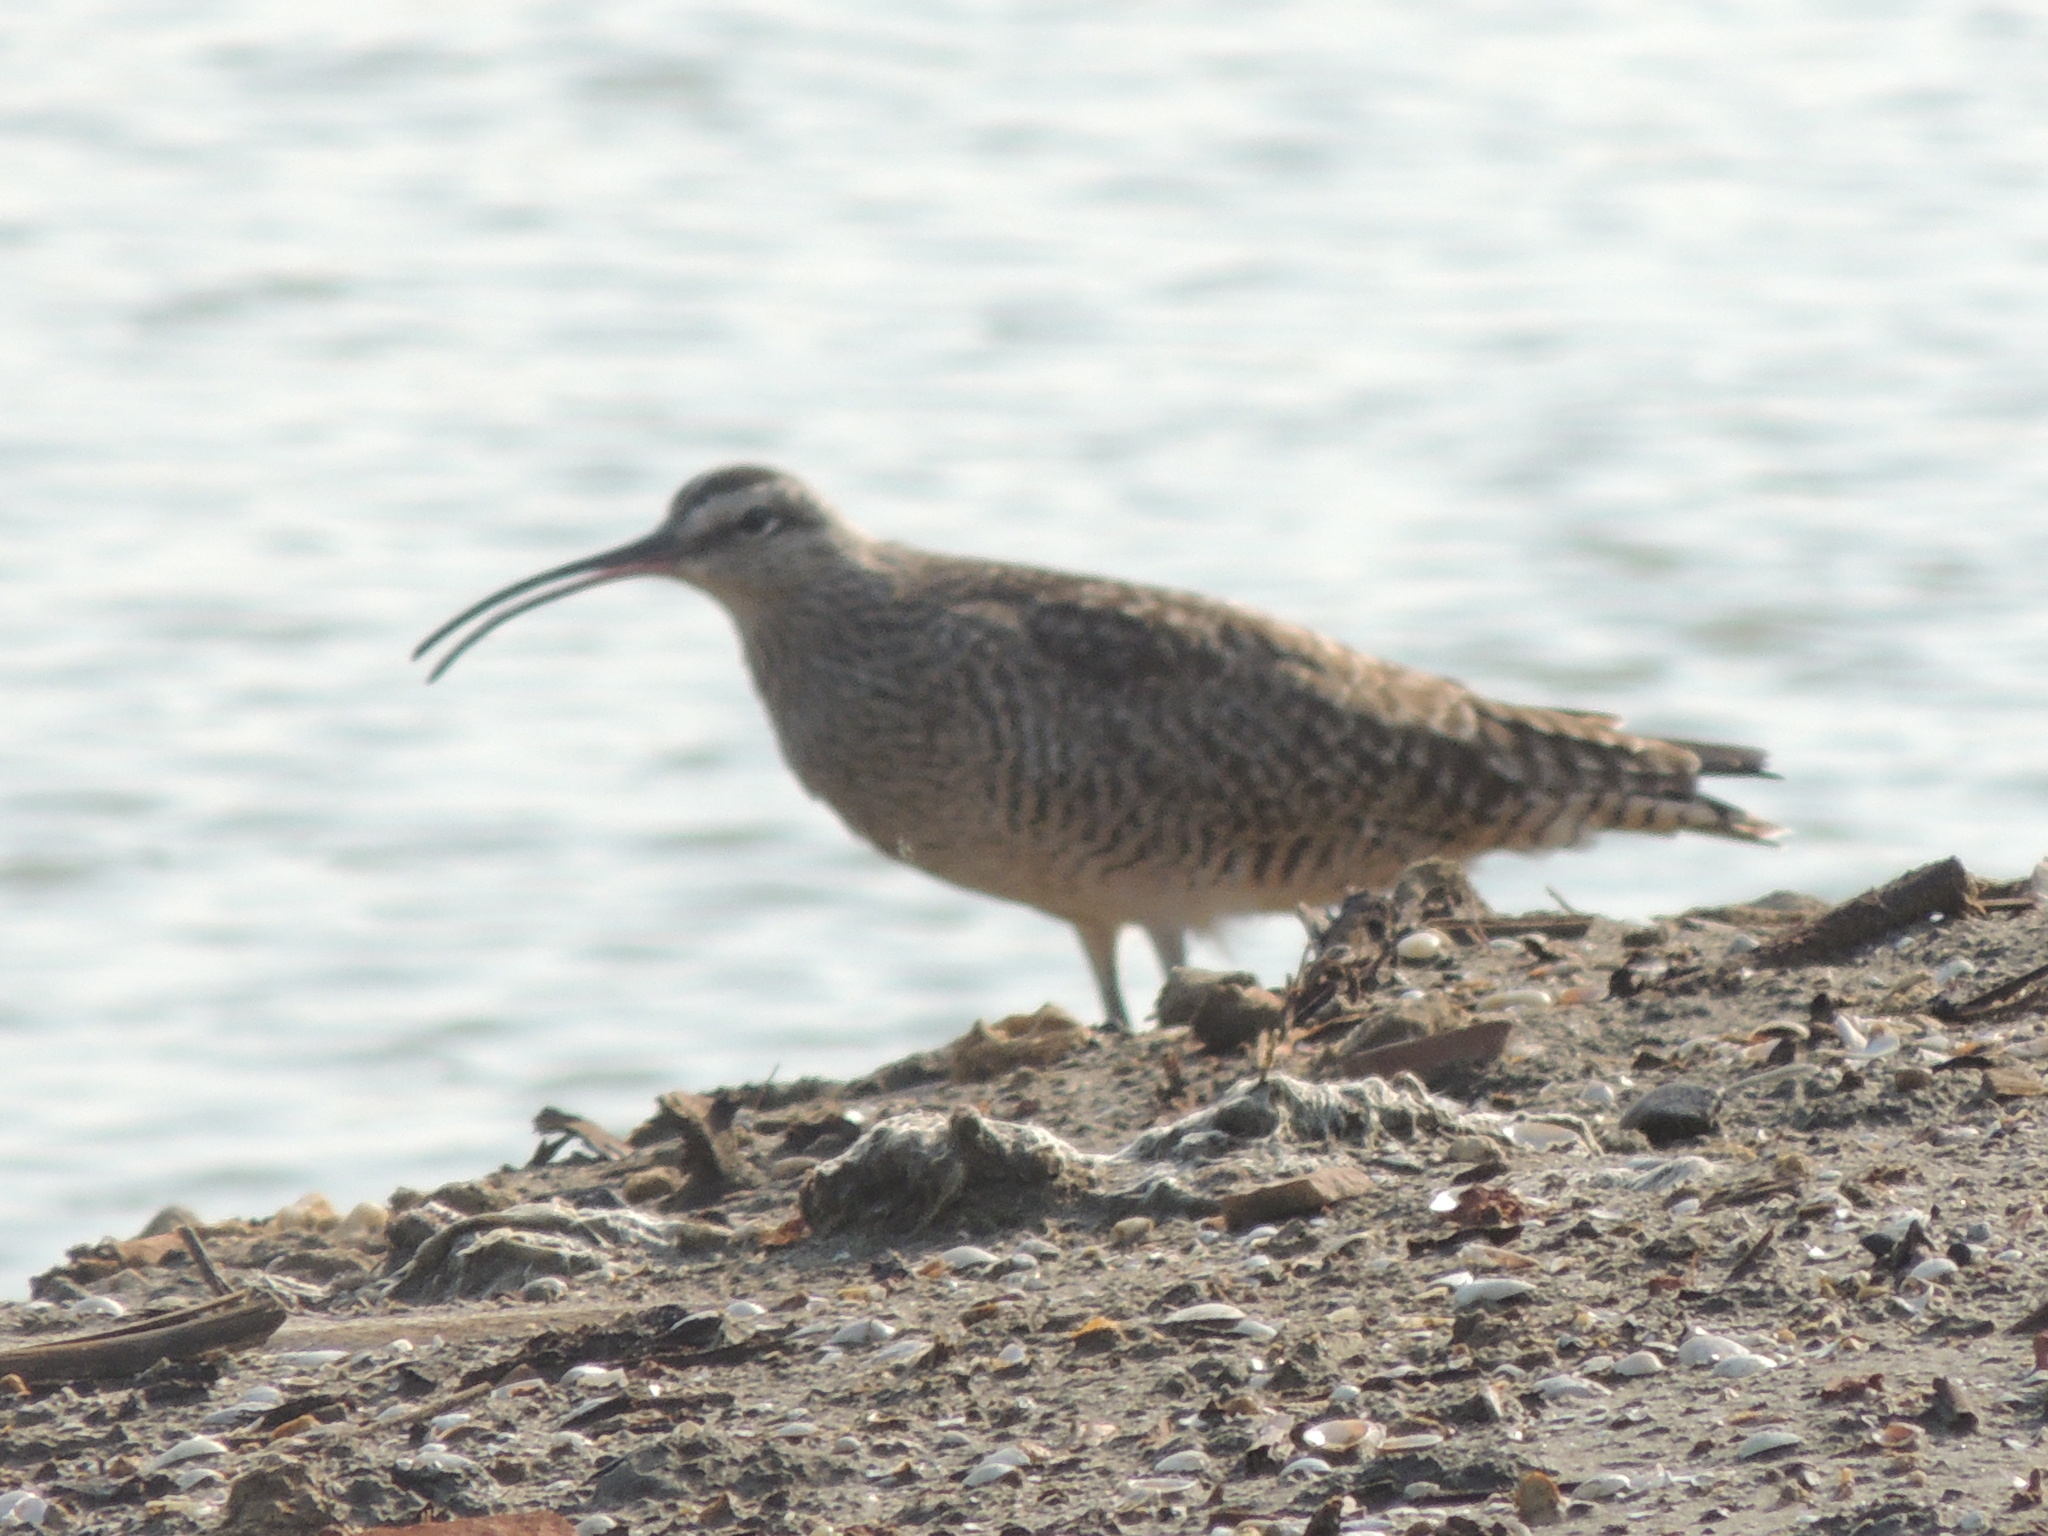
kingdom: Animalia
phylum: Chordata
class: Aves
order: Charadriiformes
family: Scolopacidae
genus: Numenius
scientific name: Numenius phaeopus
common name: Whimbrel
